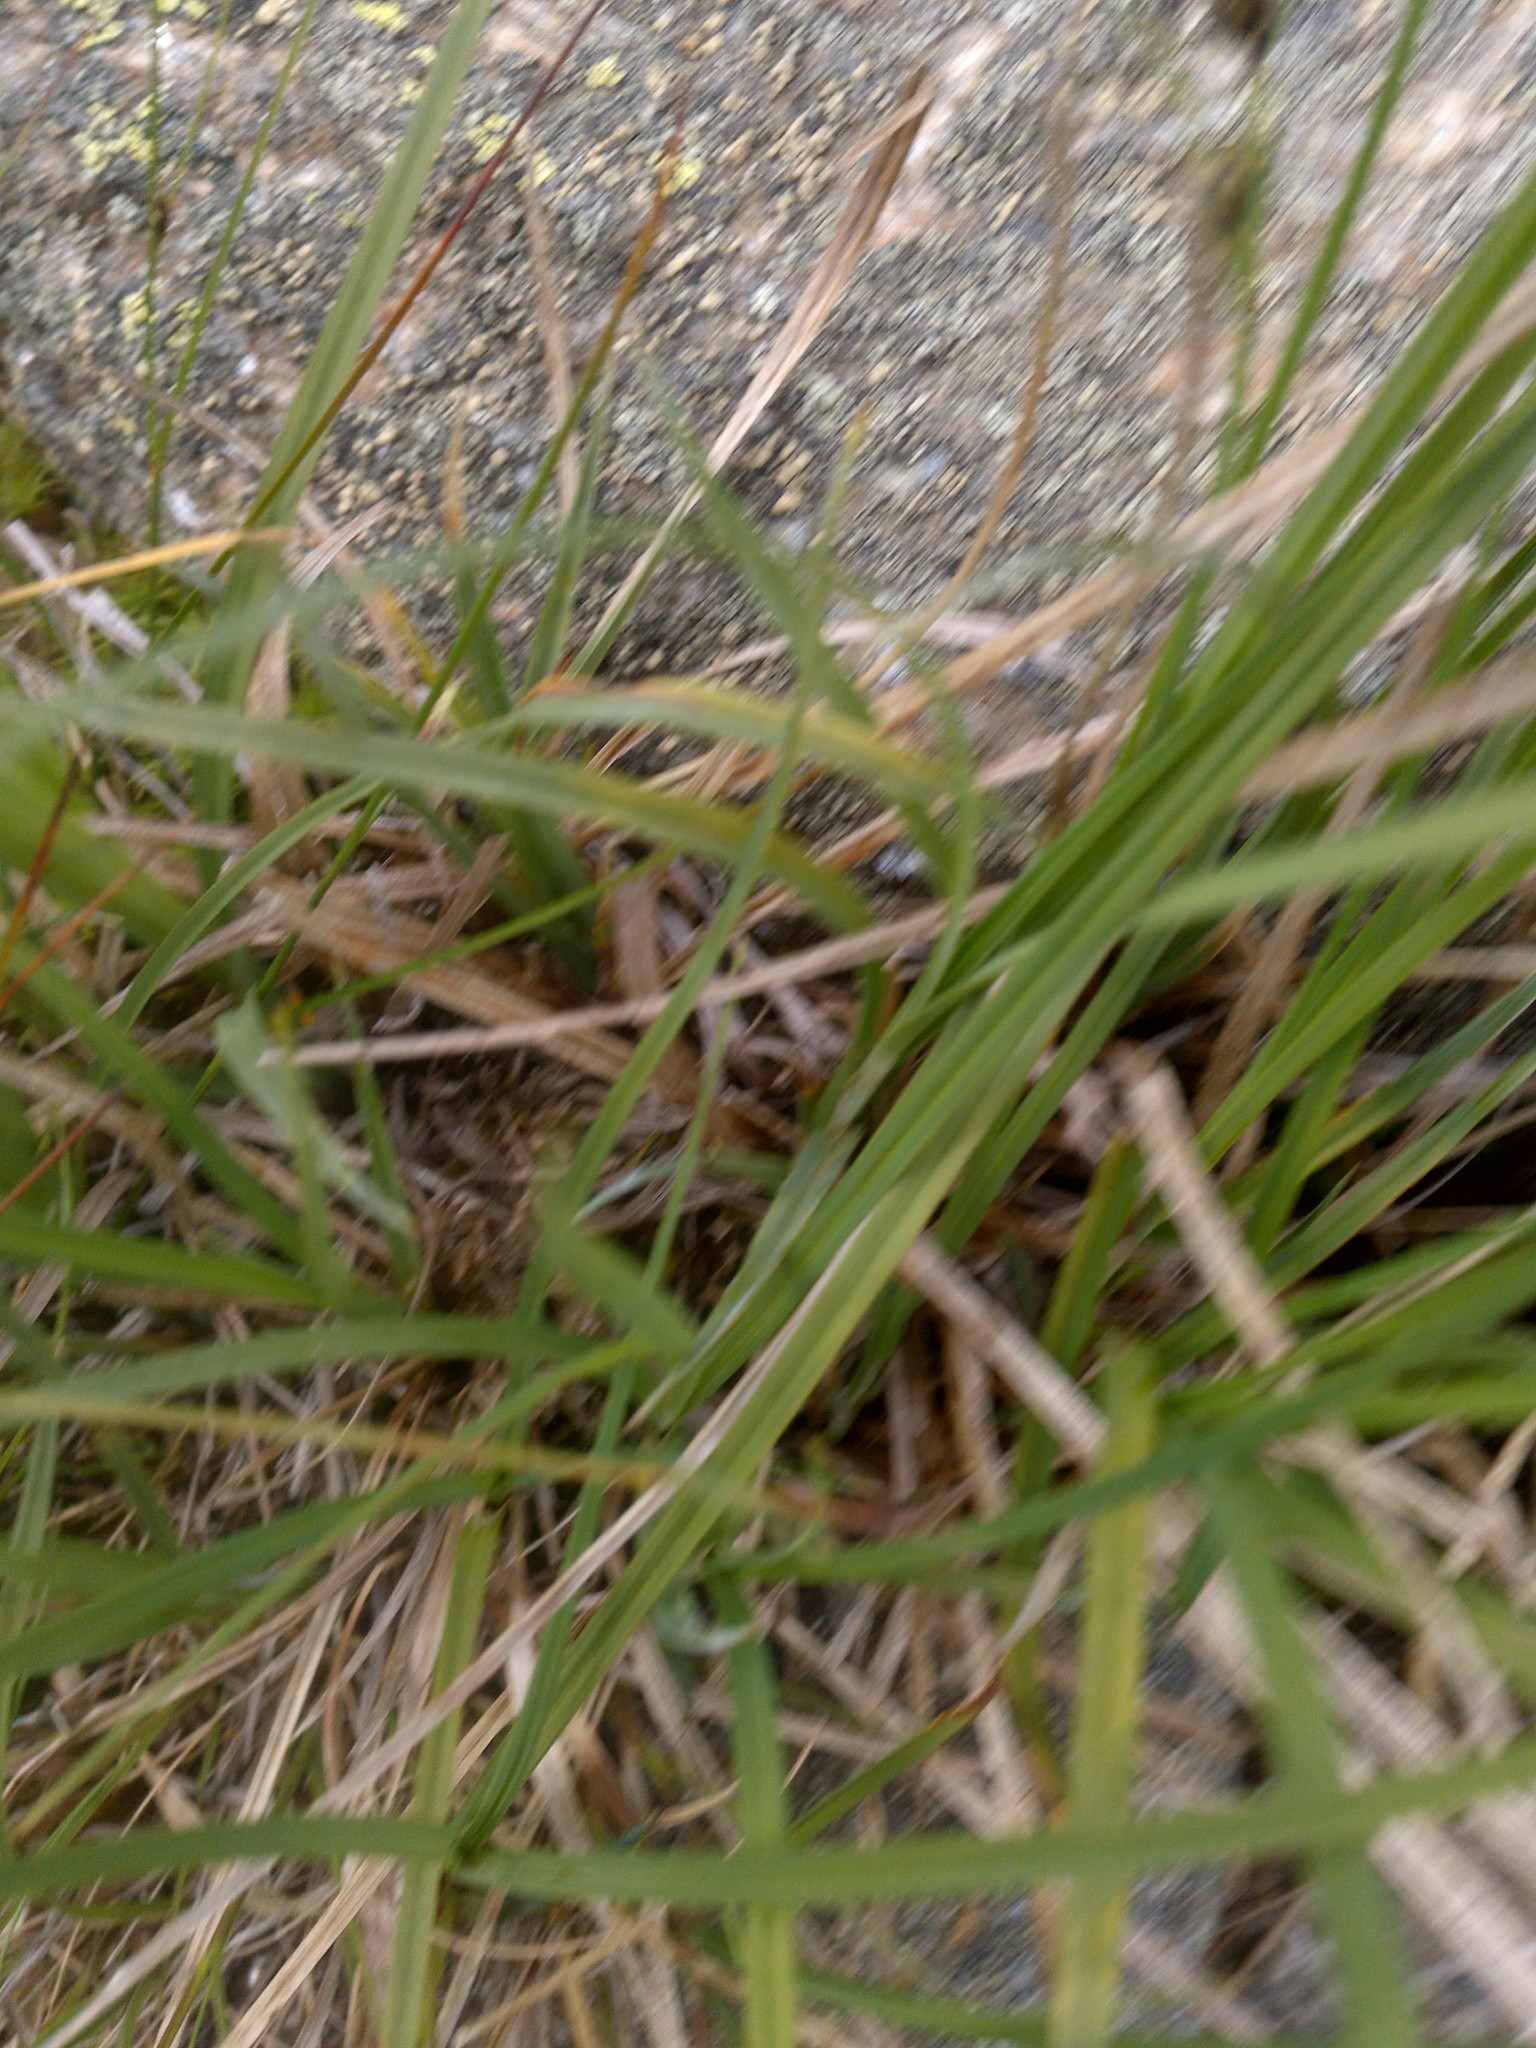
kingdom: Plantae
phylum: Tracheophyta
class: Liliopsida
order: Poales
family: Cyperaceae
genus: Carex
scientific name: Carex bigelowii
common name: Stiff sedge
